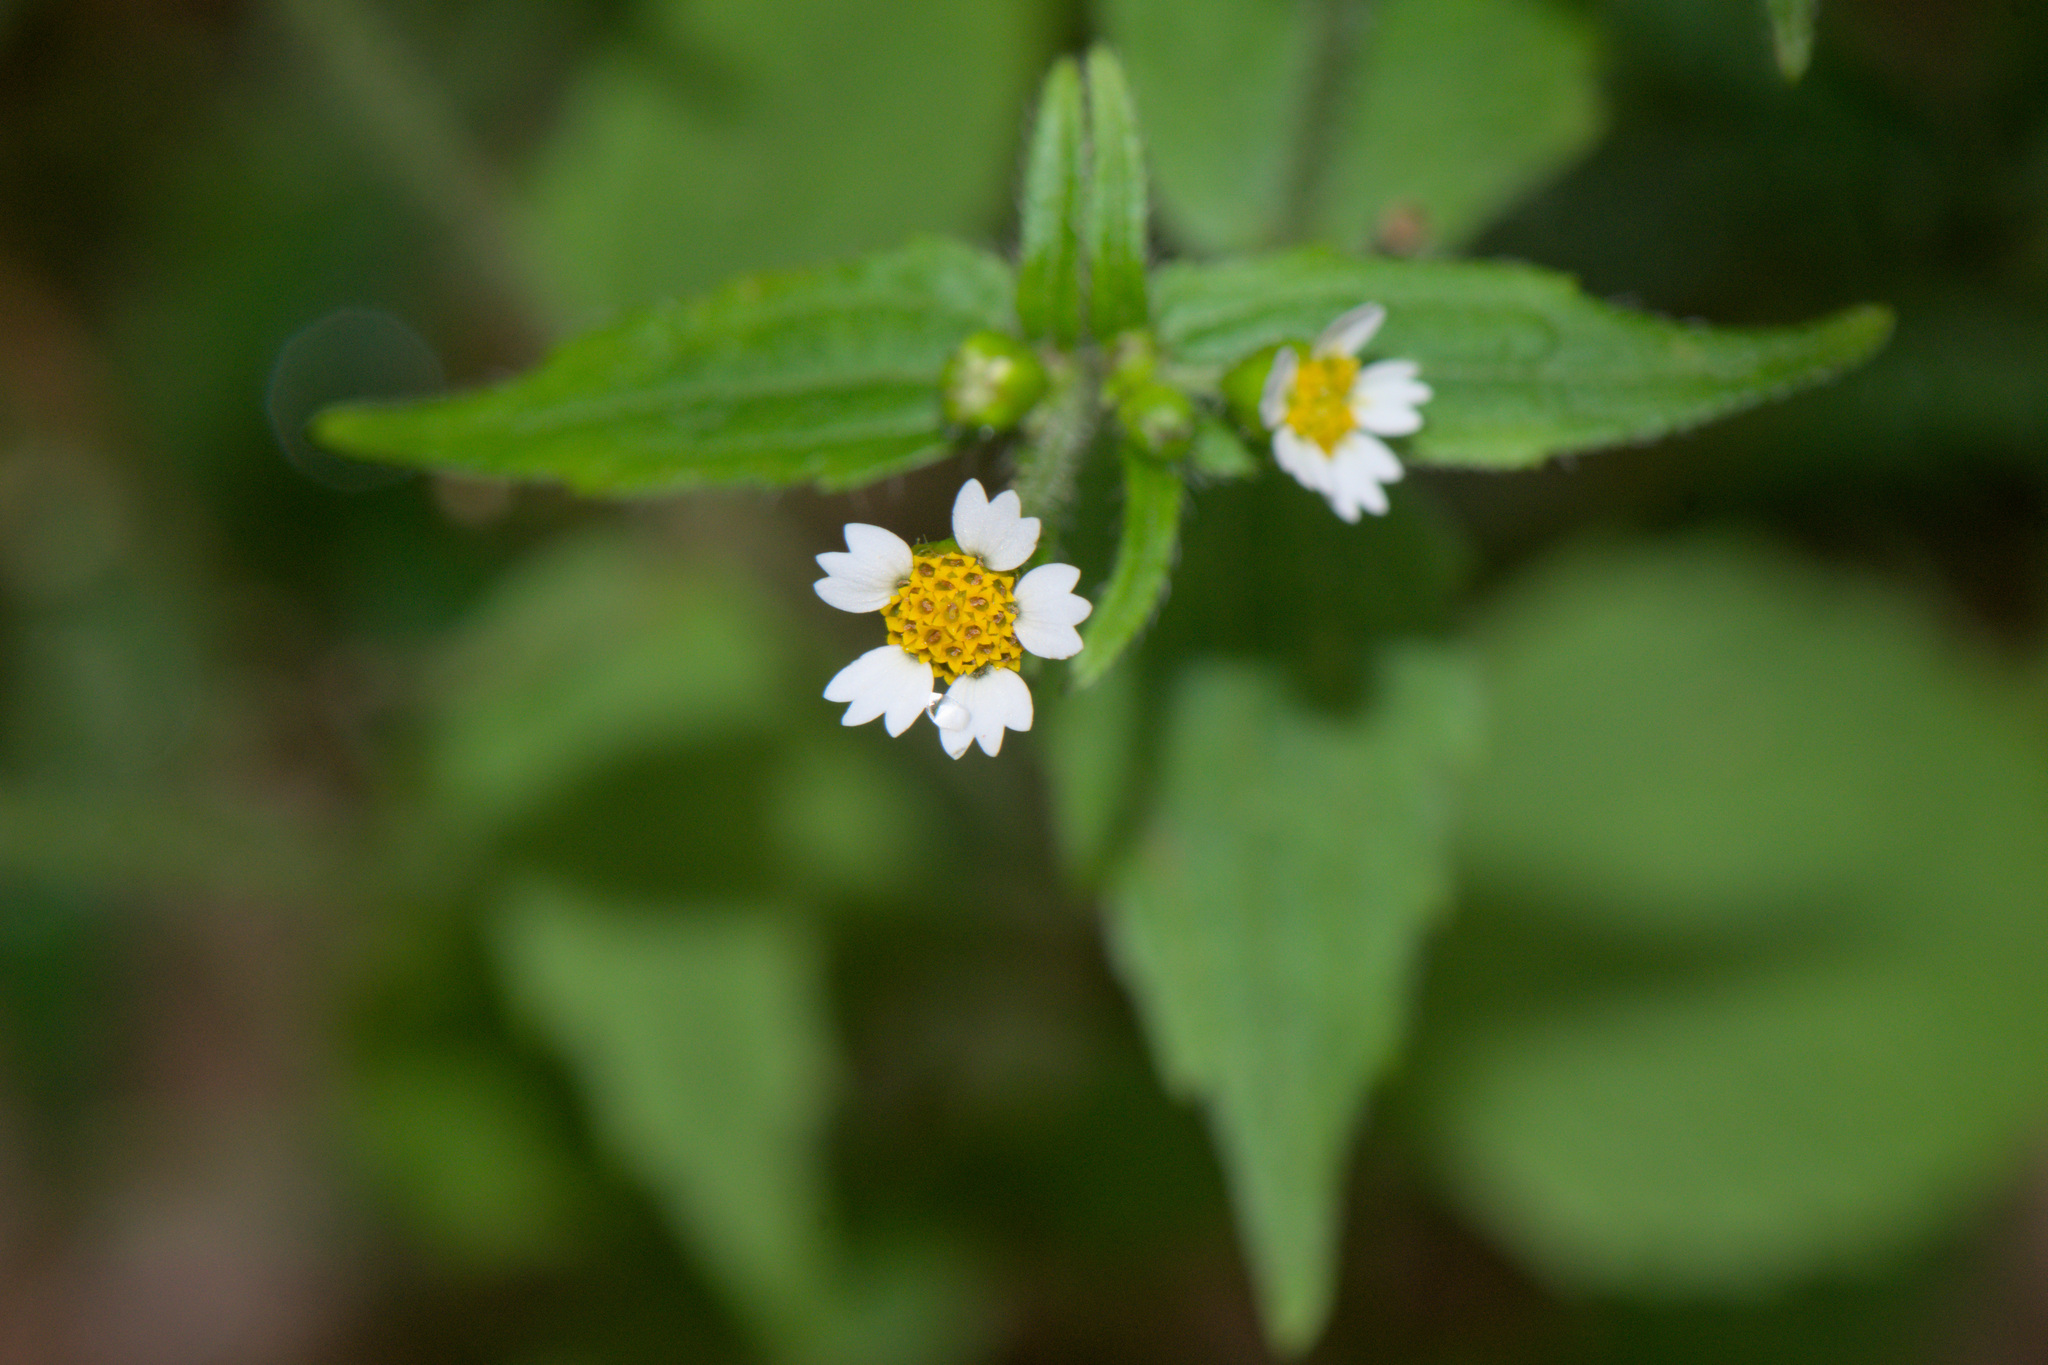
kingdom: Plantae
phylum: Tracheophyta
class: Magnoliopsida
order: Asterales
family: Asteraceae
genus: Galinsoga
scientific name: Galinsoga quadriradiata
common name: Shaggy soldier
